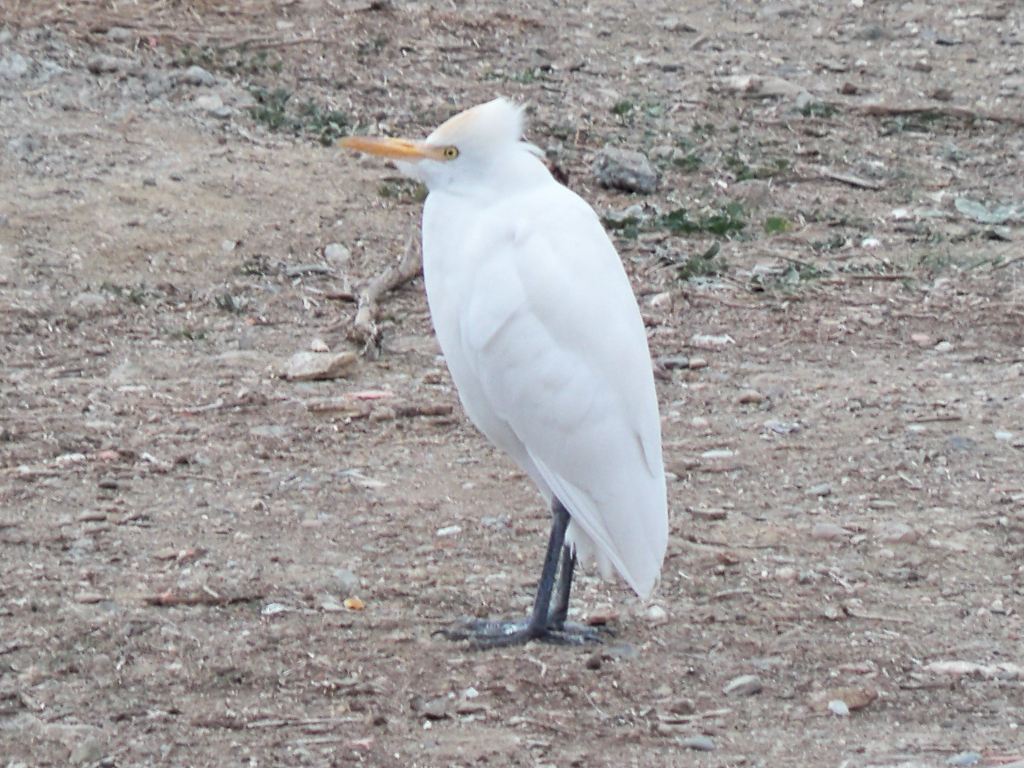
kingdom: Animalia
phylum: Chordata
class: Aves
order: Pelecaniformes
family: Ardeidae
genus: Bubulcus
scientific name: Bubulcus ibis
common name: Cattle egret
